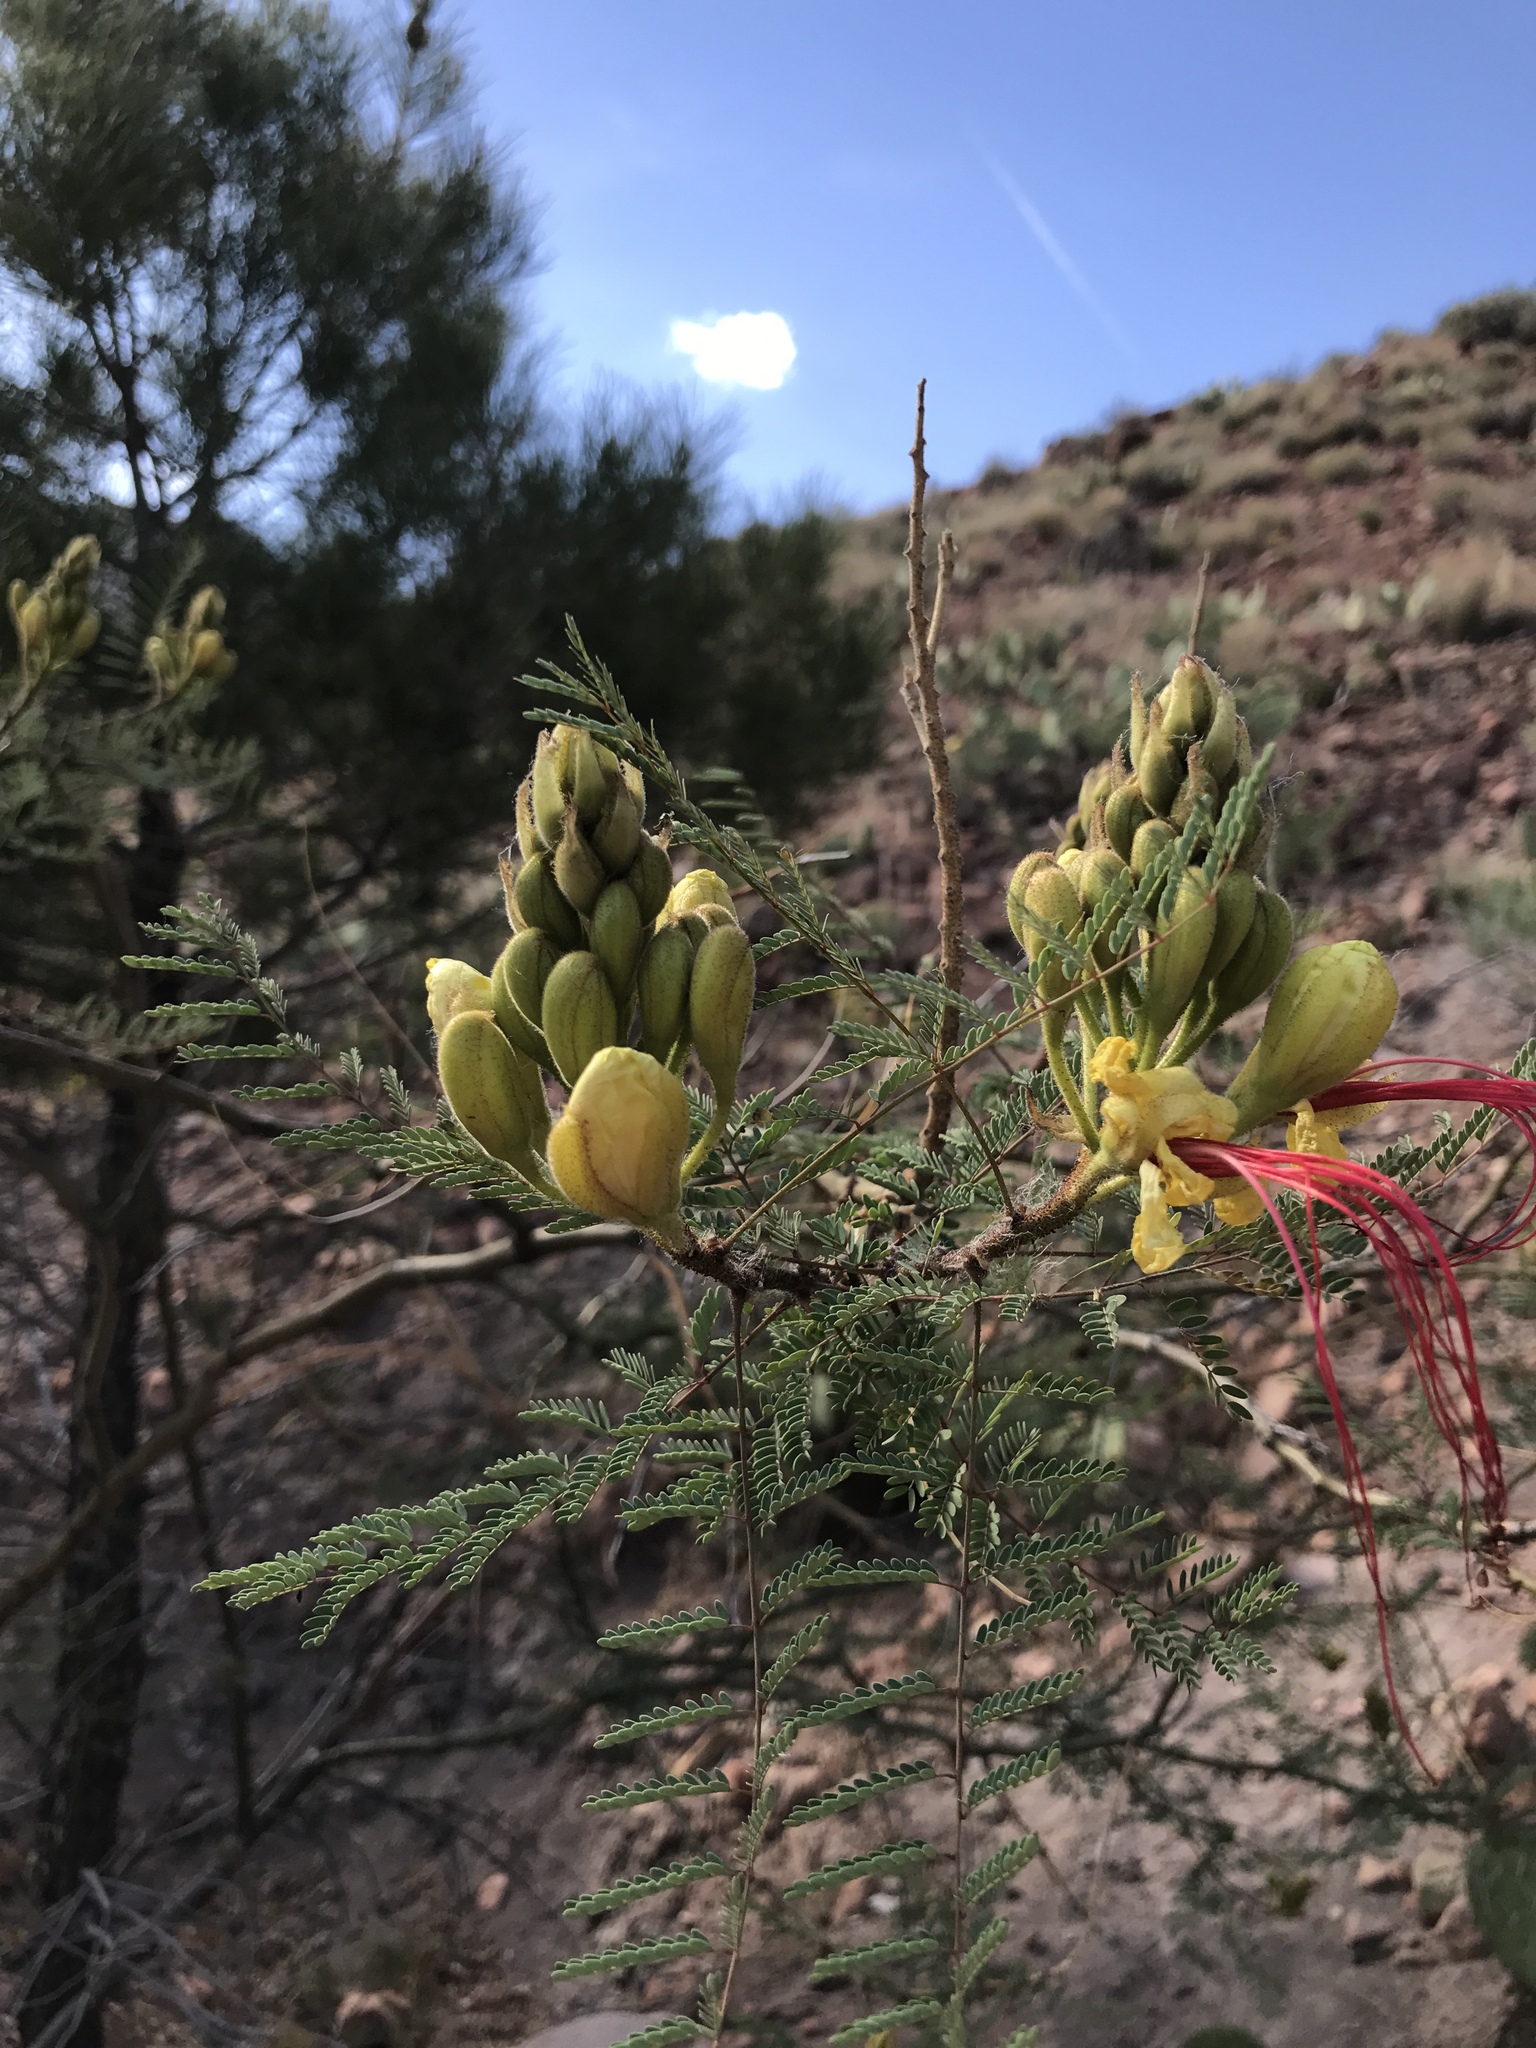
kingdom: Plantae
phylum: Tracheophyta
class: Magnoliopsida
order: Fabales
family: Fabaceae
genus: Erythrostemon
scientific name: Erythrostemon gilliesii
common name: Bird-of-paradise shrub
